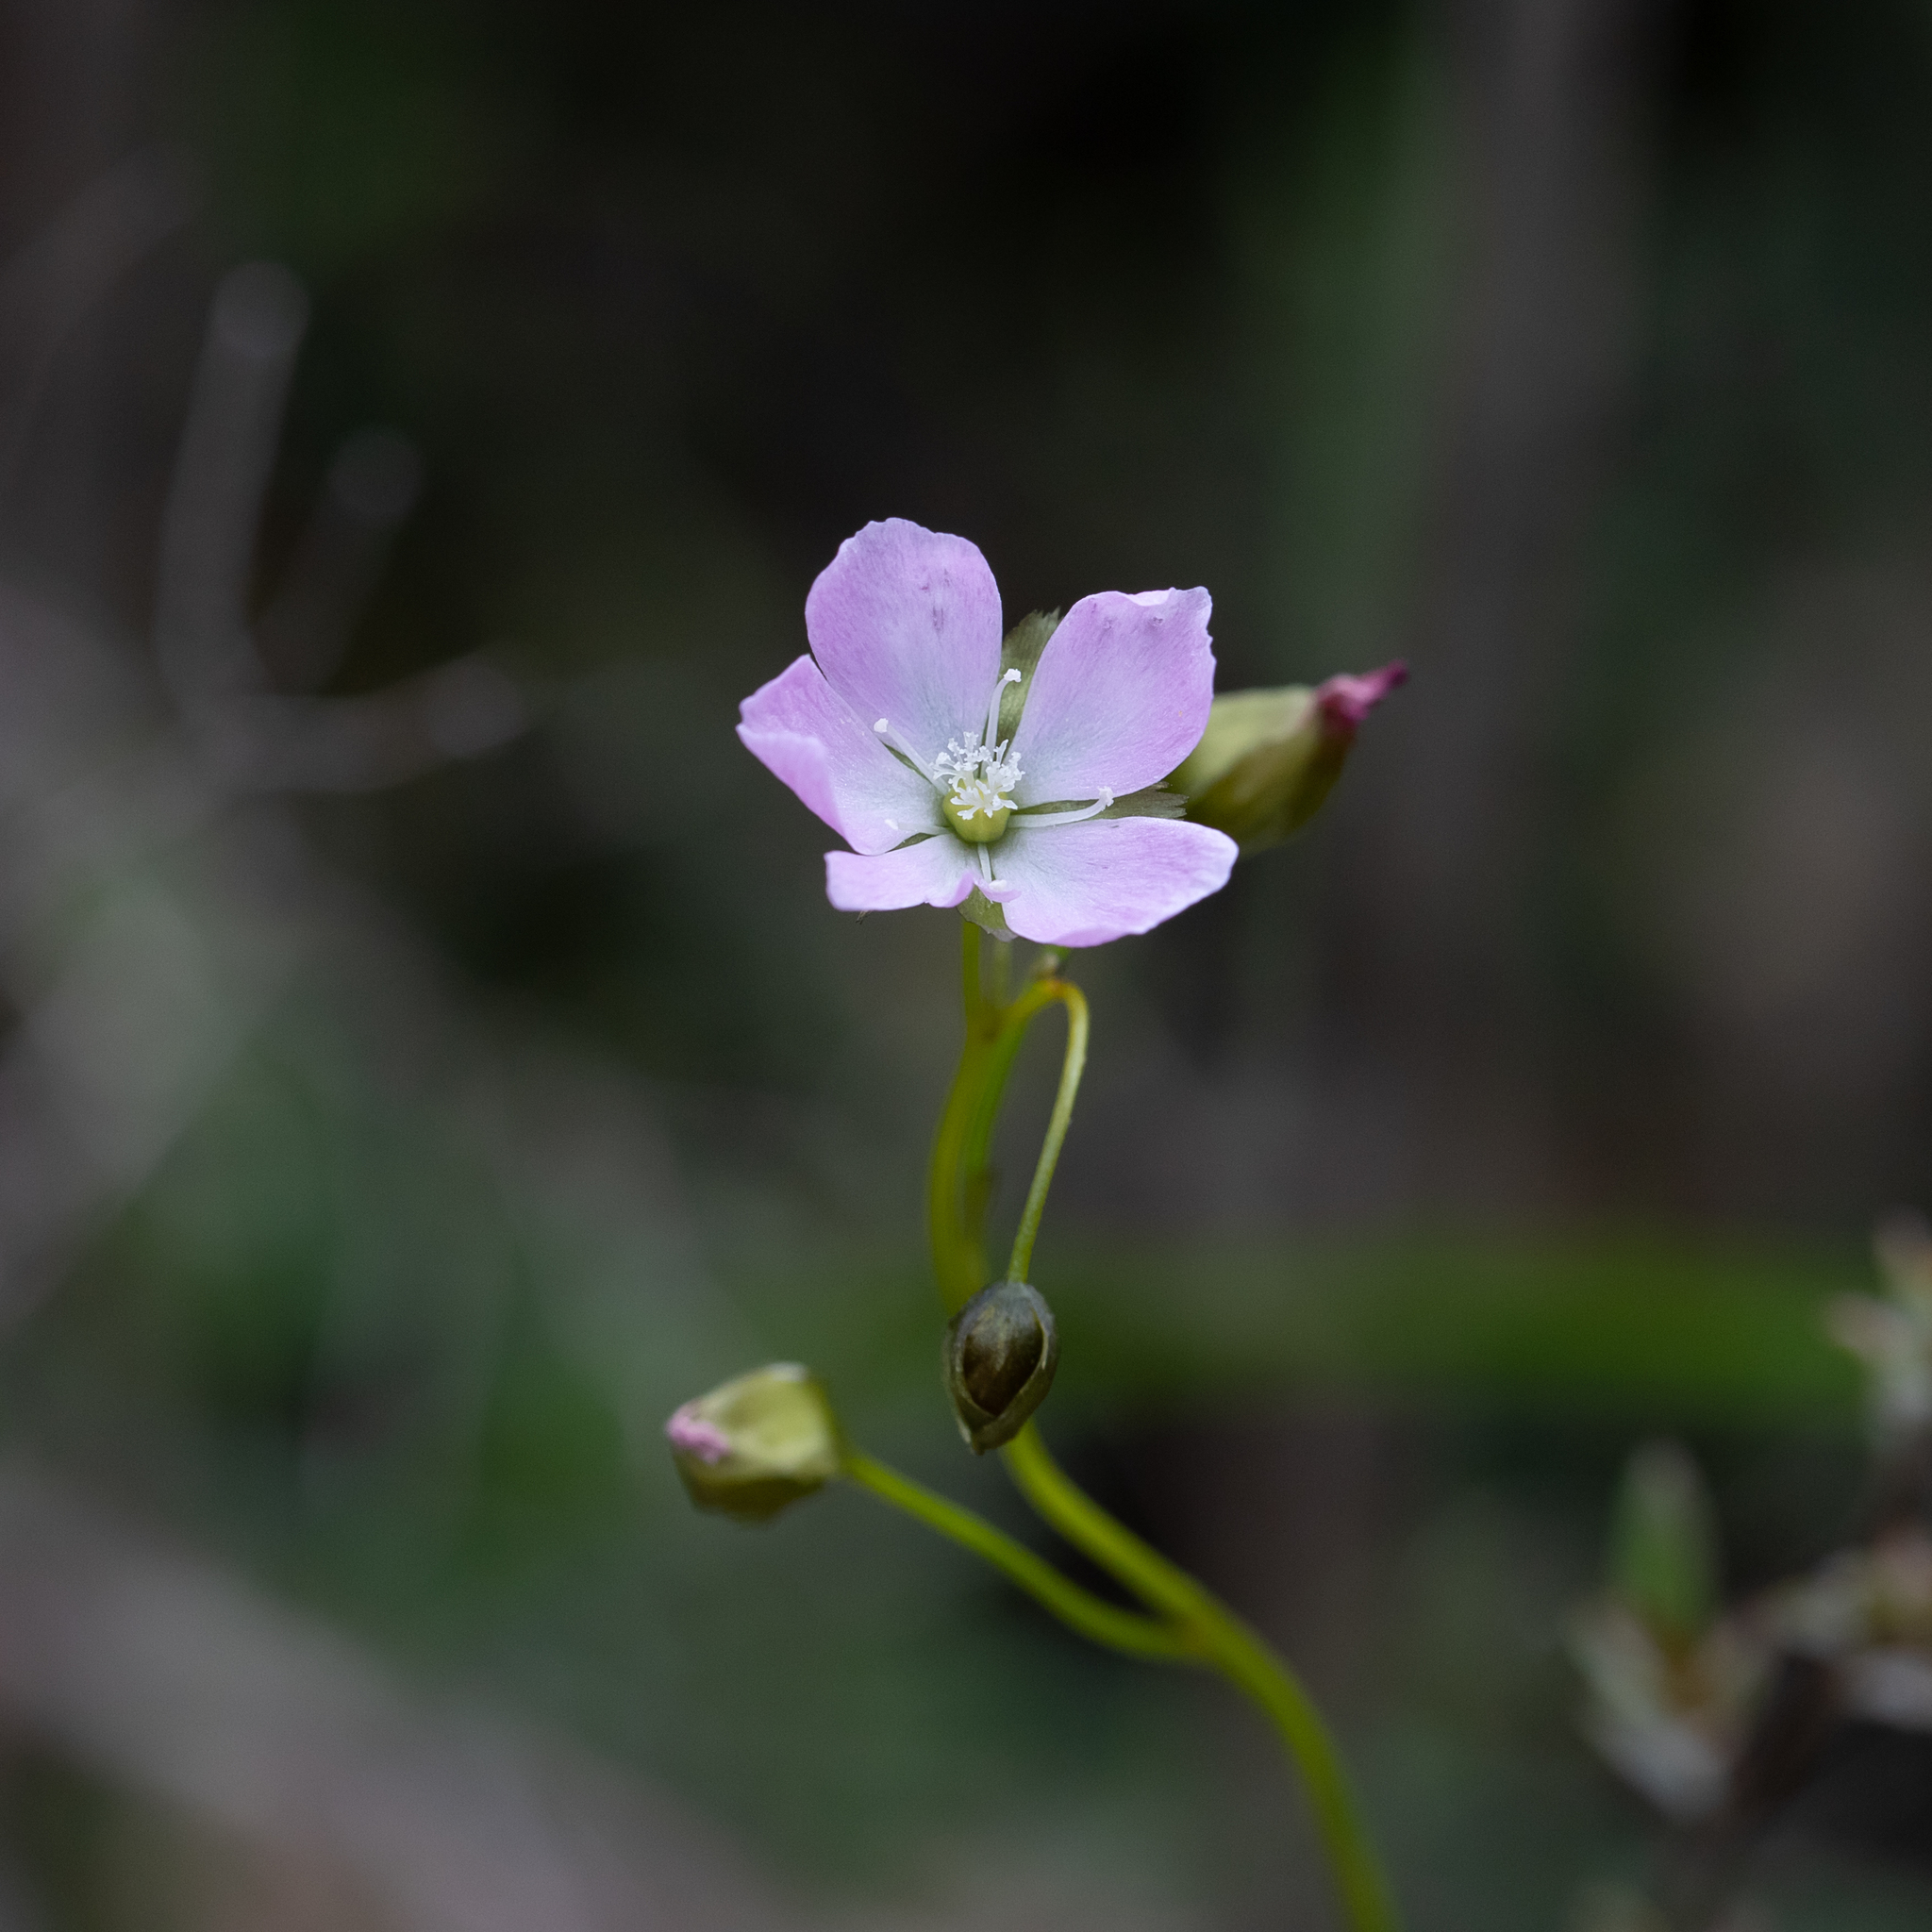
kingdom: Plantae
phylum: Tracheophyta
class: Magnoliopsida
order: Caryophyllales
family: Droseraceae
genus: Drosera
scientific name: Drosera peltata
